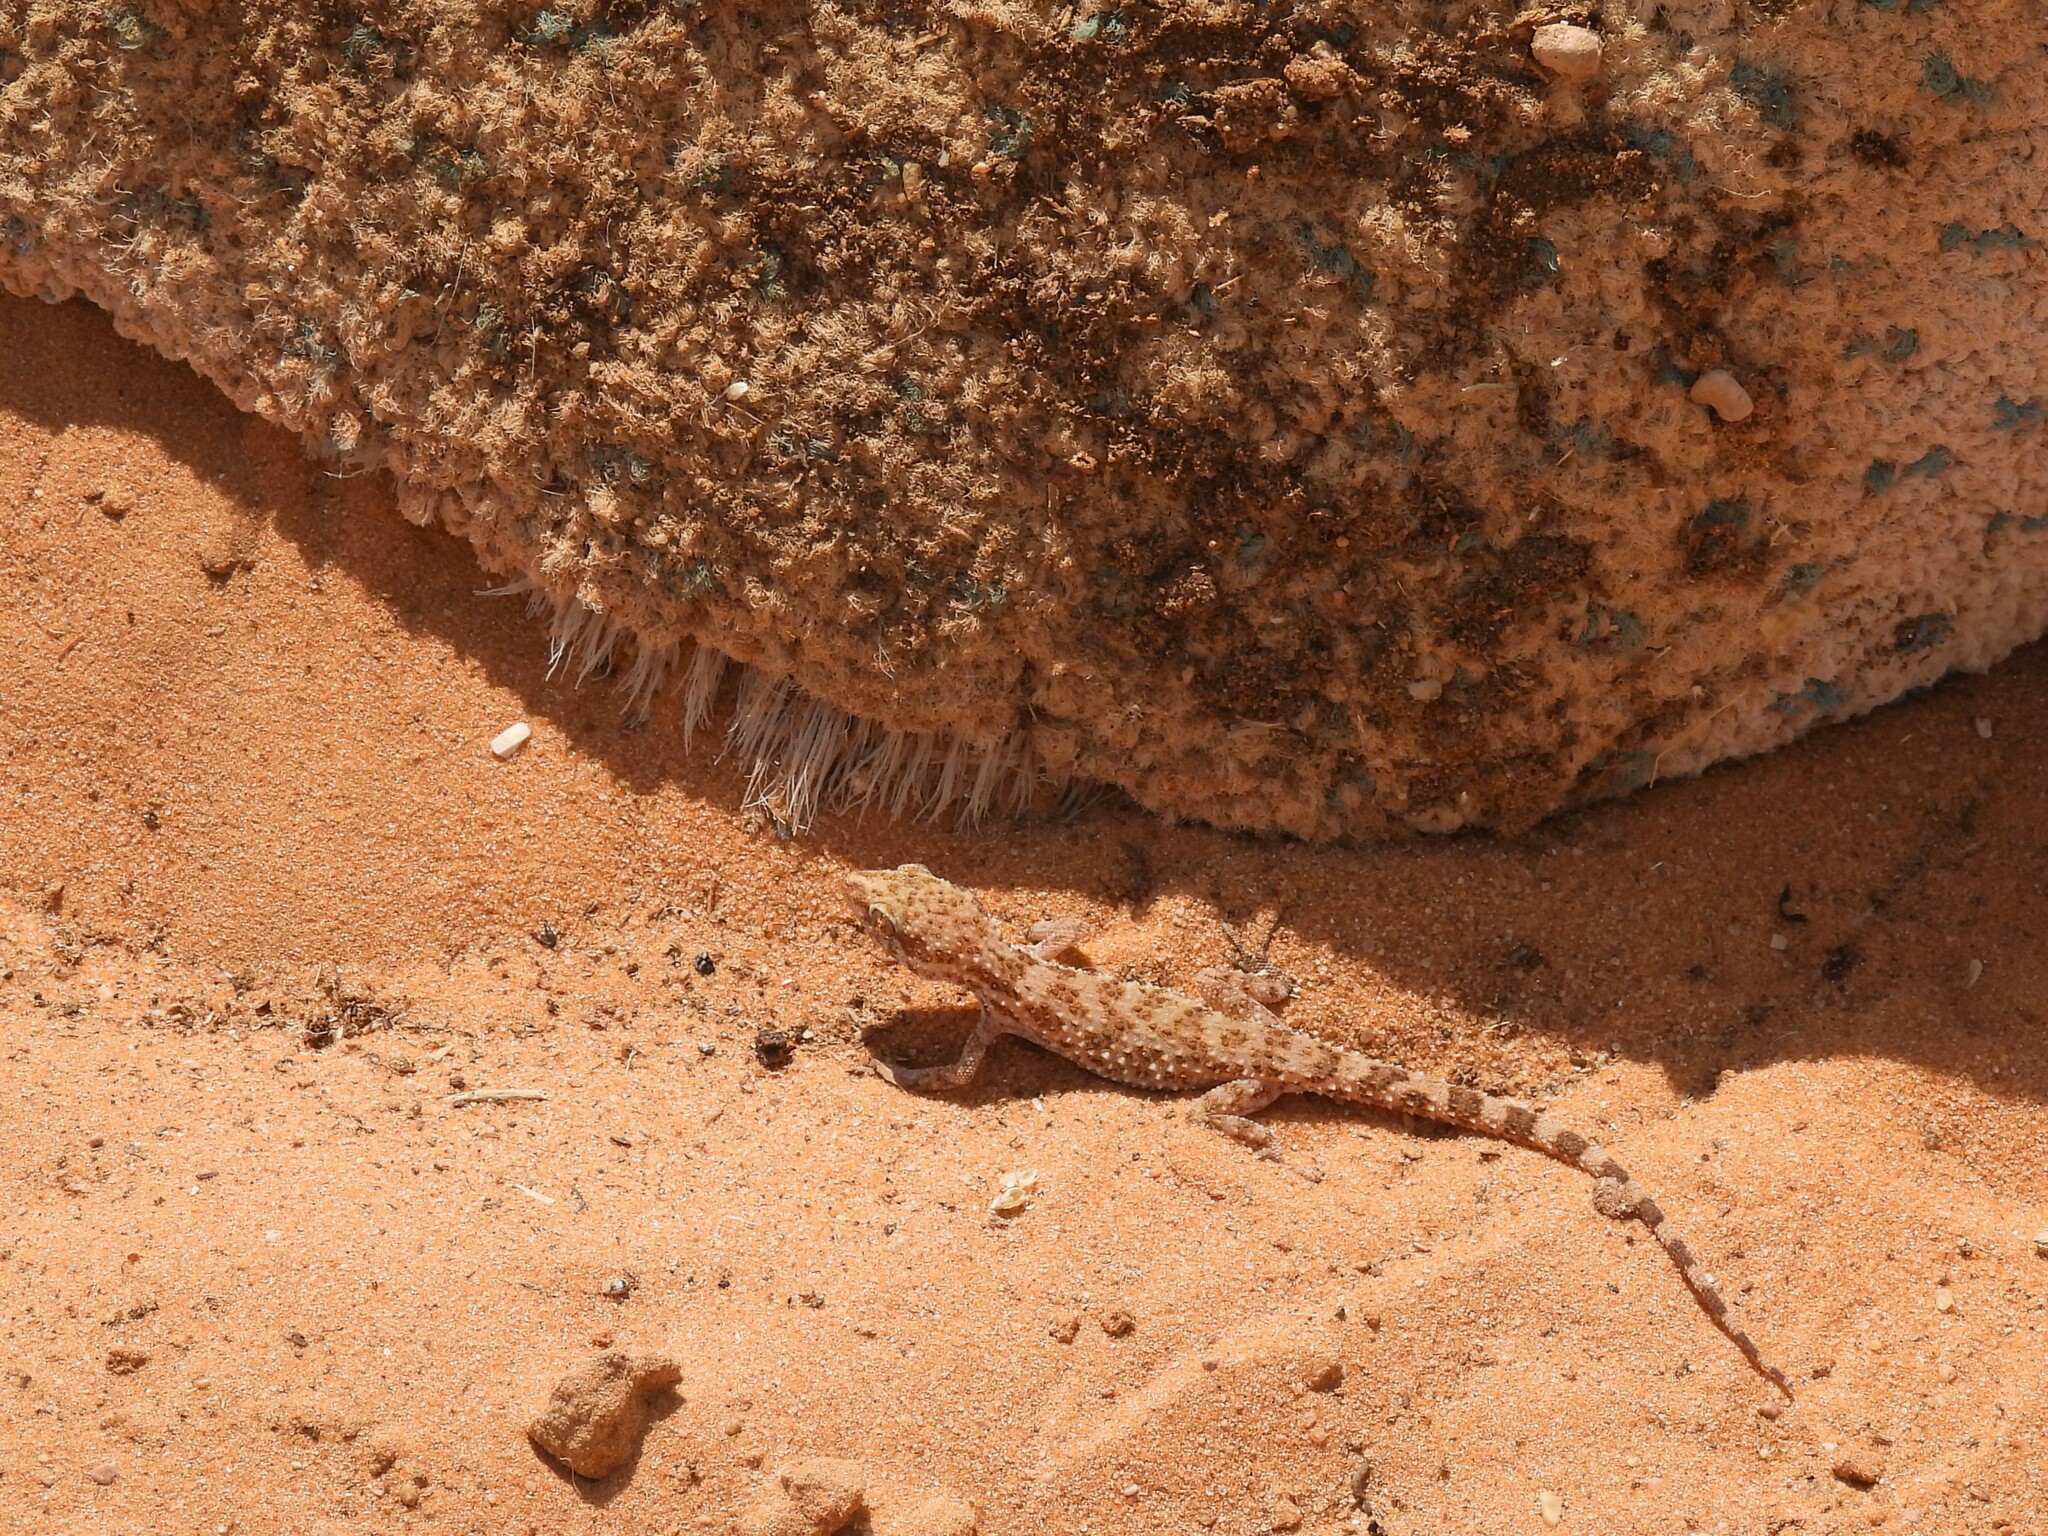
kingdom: Animalia
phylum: Chordata
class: Squamata
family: Gekkonidae
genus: Bunopus
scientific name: Bunopus tuberculatus
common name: Southern tuberculated gecko
